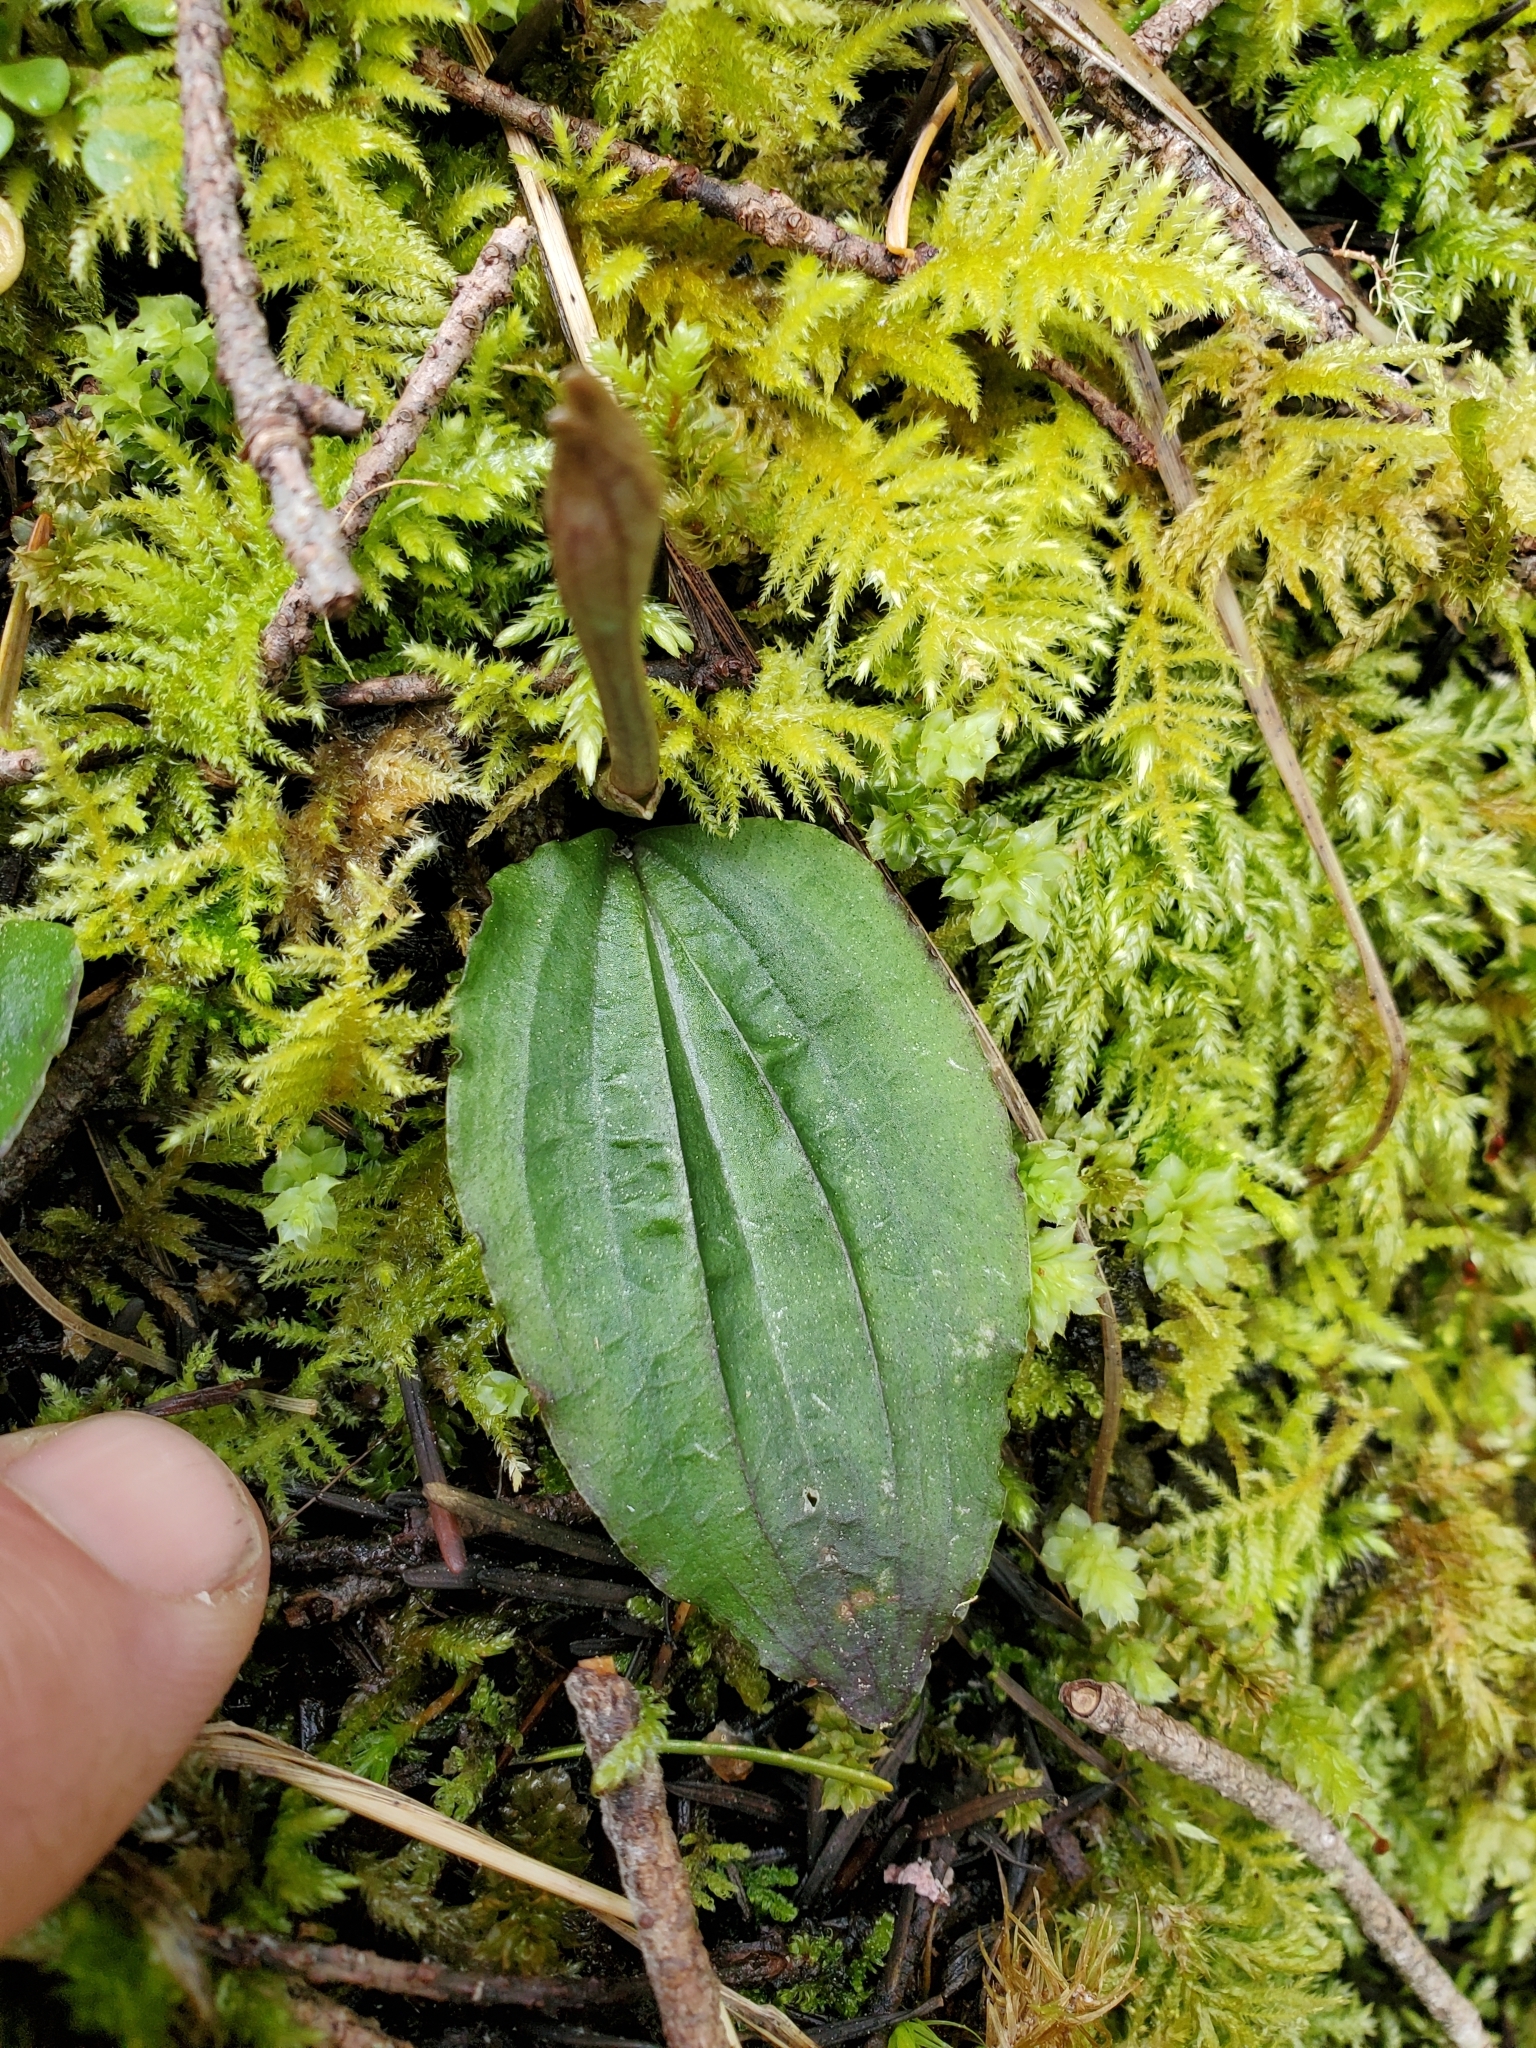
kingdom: Plantae
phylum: Tracheophyta
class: Liliopsida
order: Asparagales
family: Orchidaceae
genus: Calypso
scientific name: Calypso bulbosa
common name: Calypso
